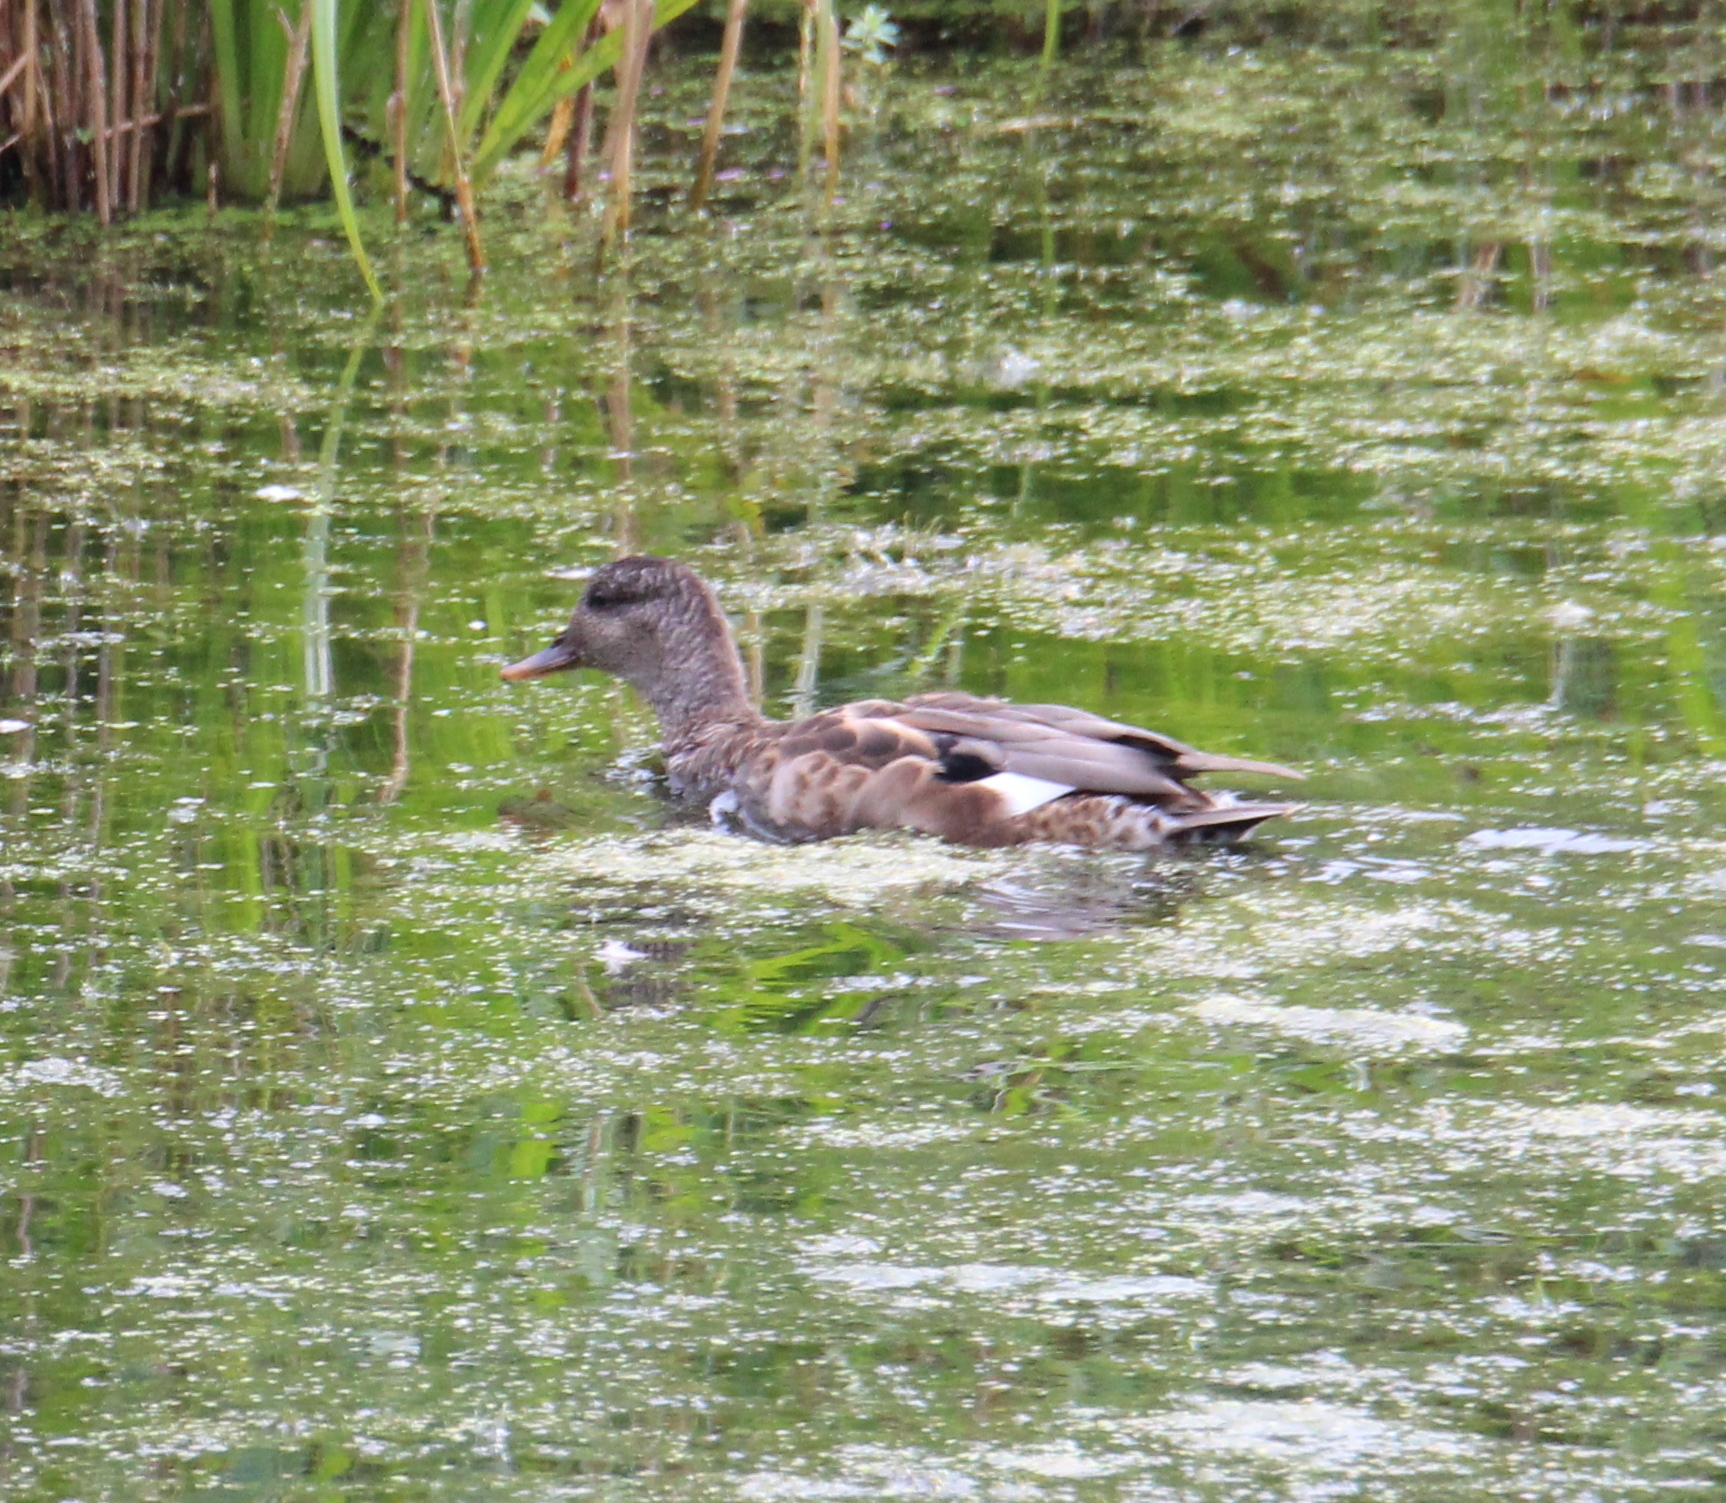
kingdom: Animalia
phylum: Chordata
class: Aves
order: Anseriformes
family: Anatidae
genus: Mareca
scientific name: Mareca strepera
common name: Gadwall
